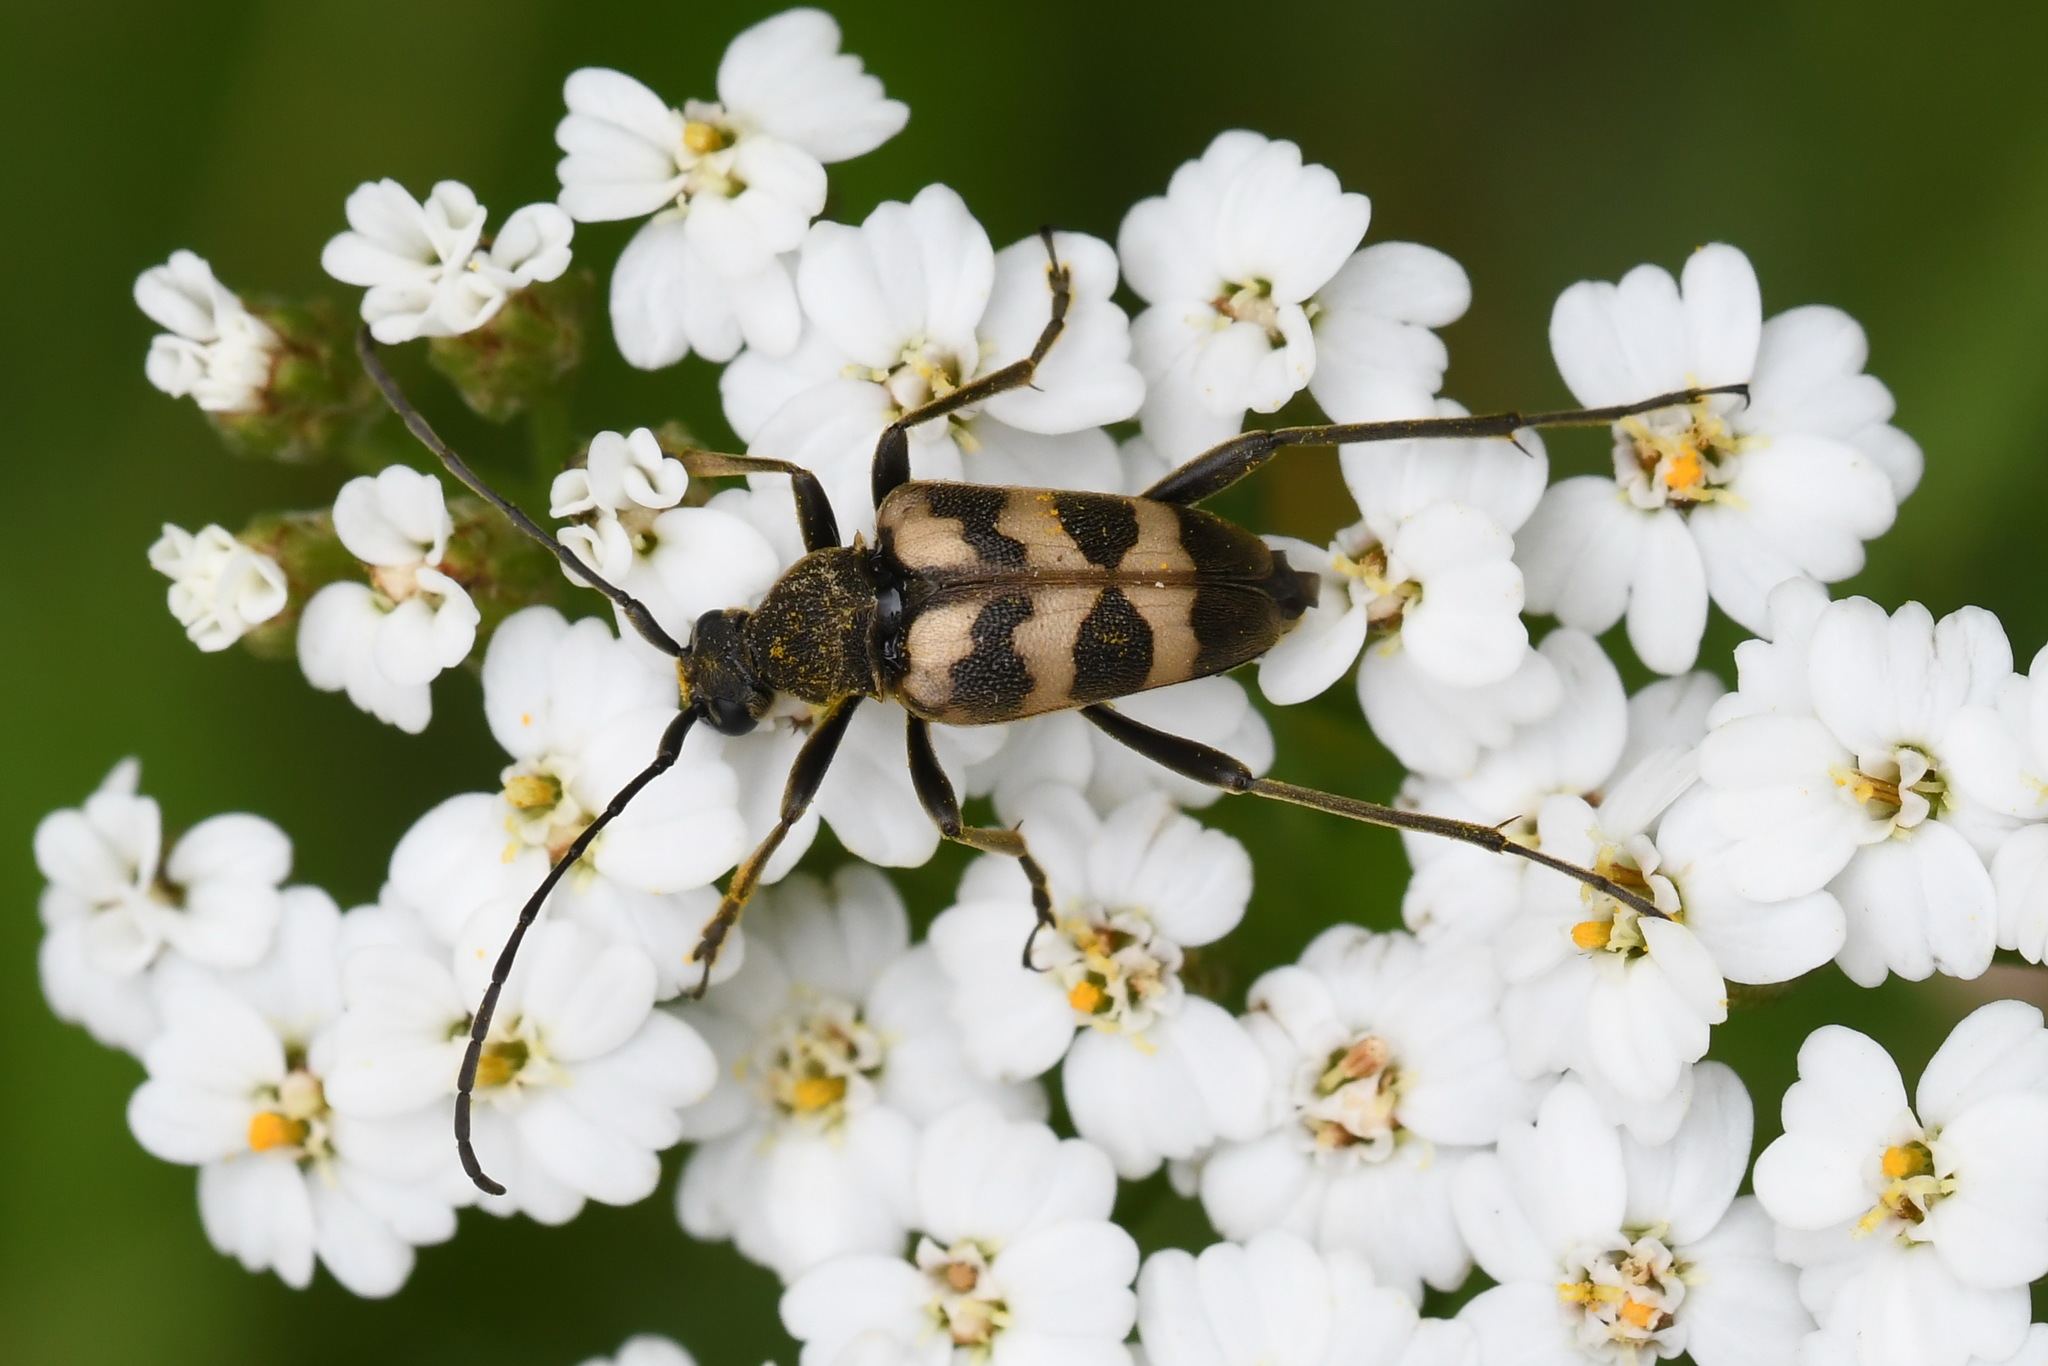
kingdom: Animalia
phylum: Arthropoda
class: Insecta
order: Coleoptera
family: Cerambycidae
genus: Pachytodes
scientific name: Pachytodes cerambyciformis
